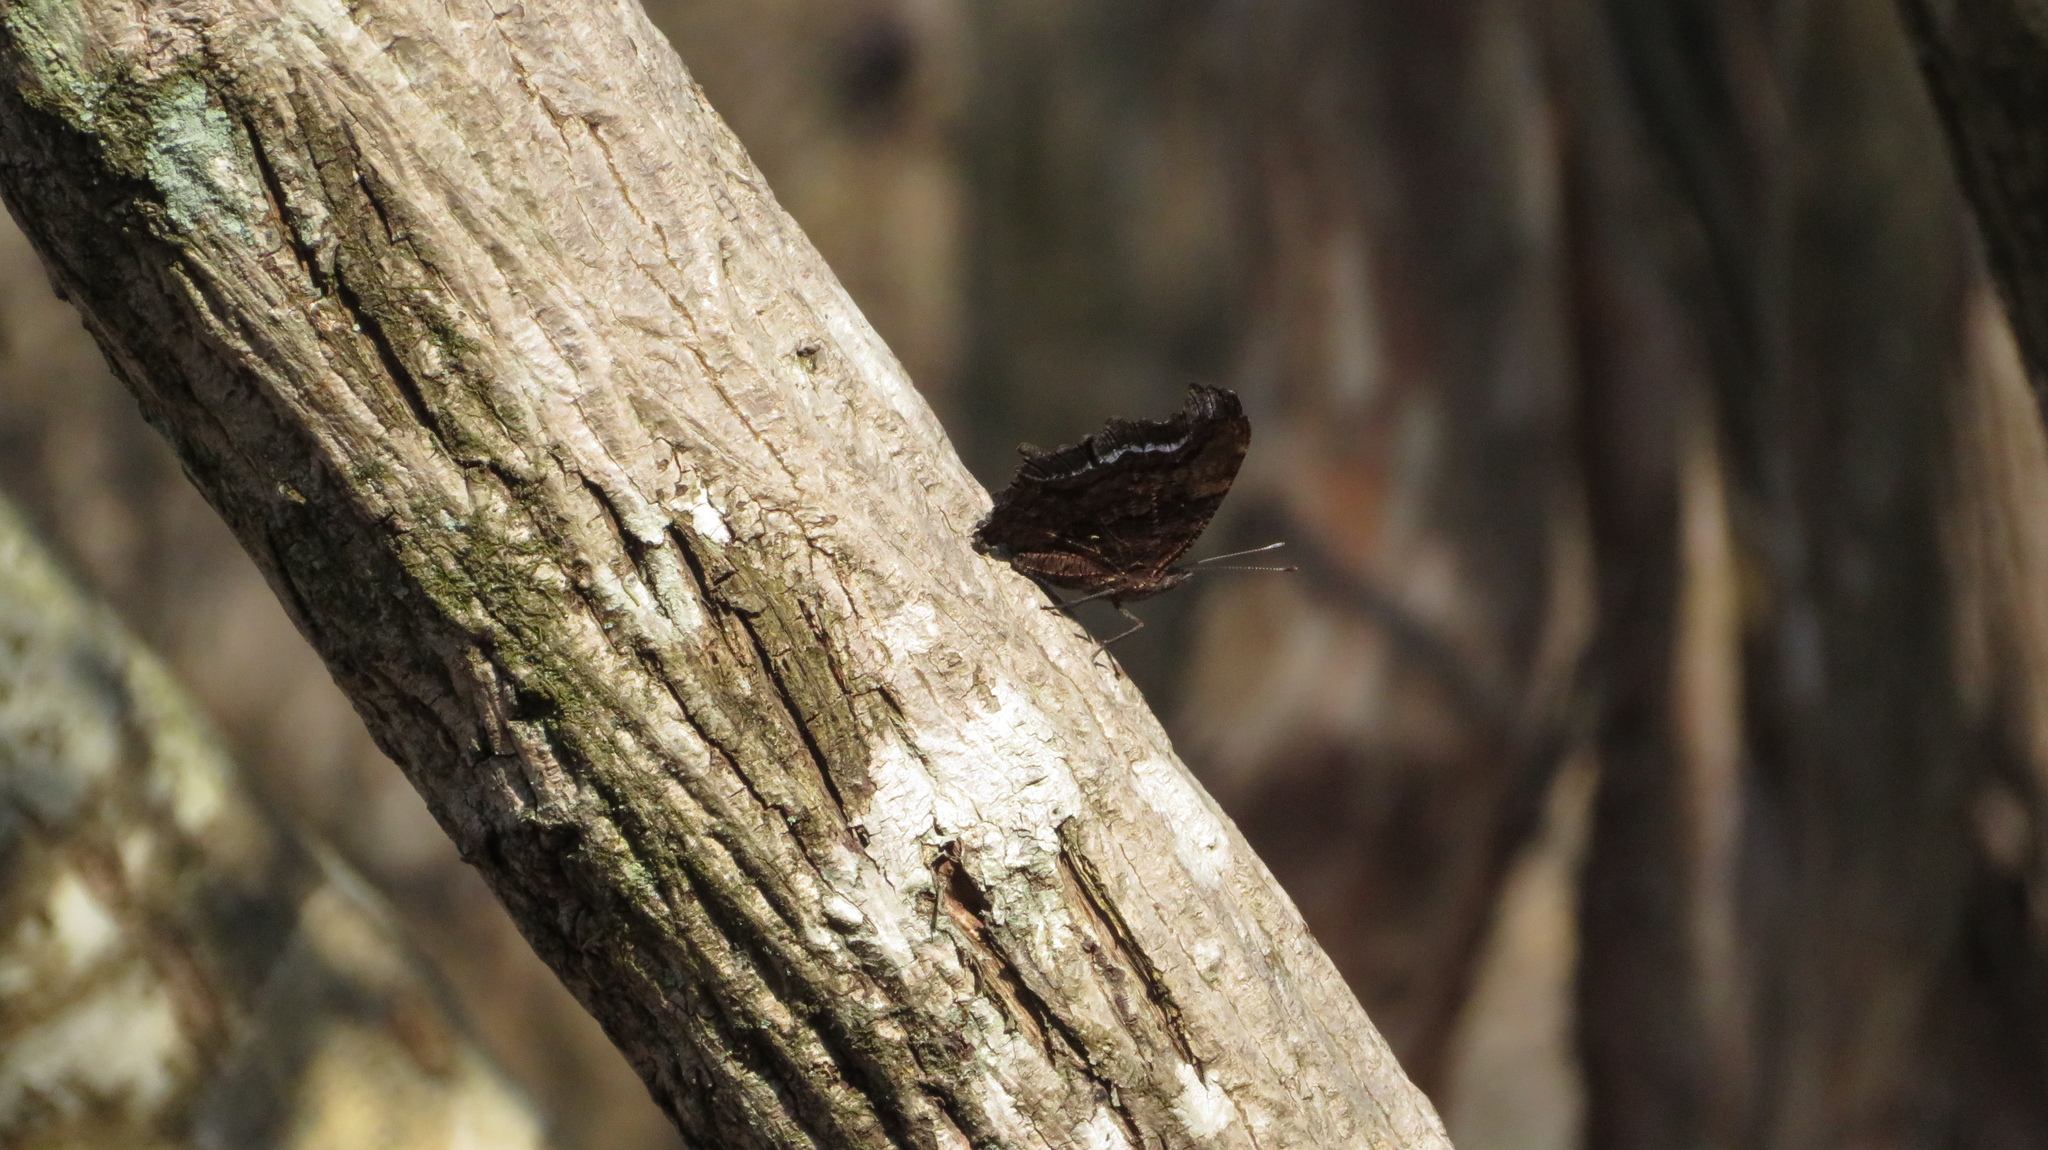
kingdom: Animalia
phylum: Arthropoda
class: Insecta
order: Lepidoptera
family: Nymphalidae
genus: Vanessa
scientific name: Vanessa Kaniska canace
